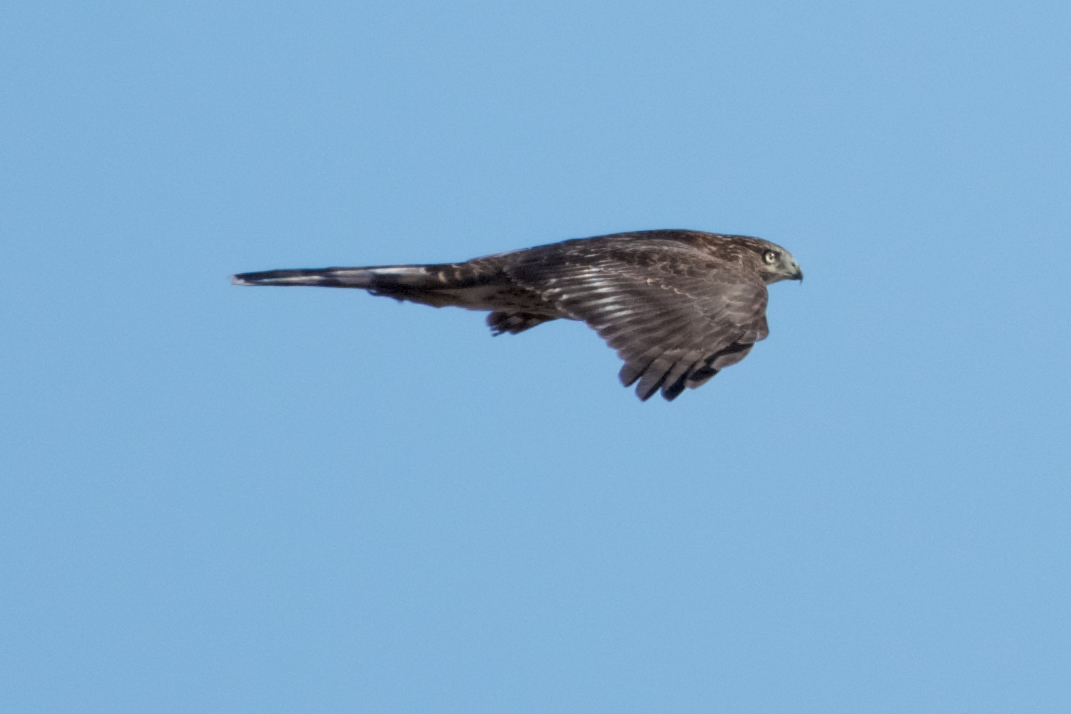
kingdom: Animalia
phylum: Chordata
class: Aves
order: Accipitriformes
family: Accipitridae
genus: Accipiter
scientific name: Accipiter cooperii
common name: Cooper's hawk
